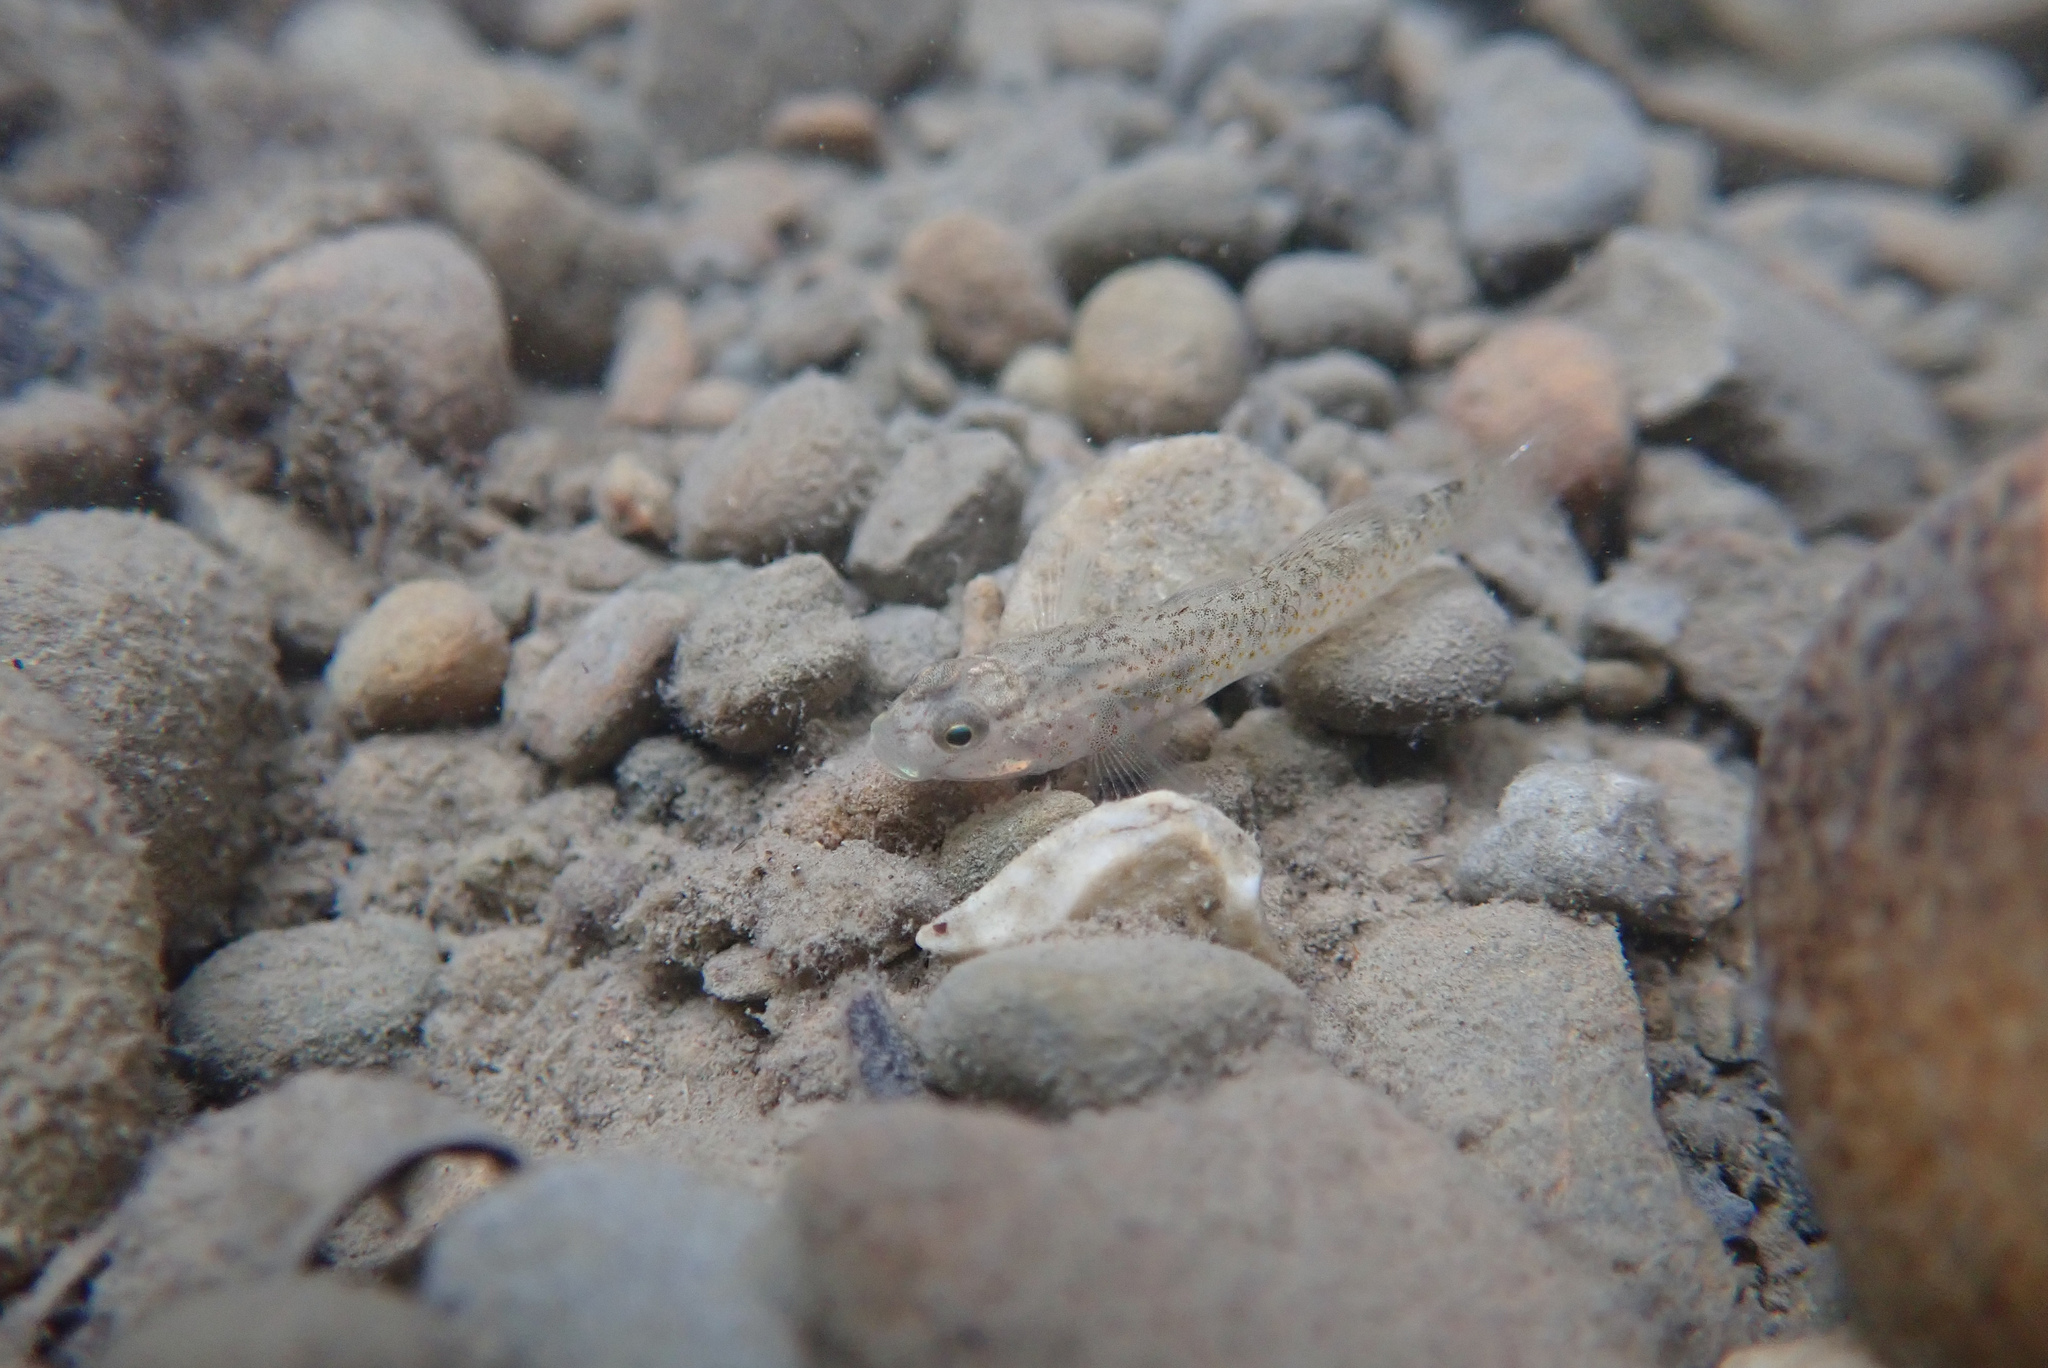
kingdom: Animalia
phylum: Chordata
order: Perciformes
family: Gobiidae
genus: Rhinogobius
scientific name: Rhinogobius rubromaculatus
